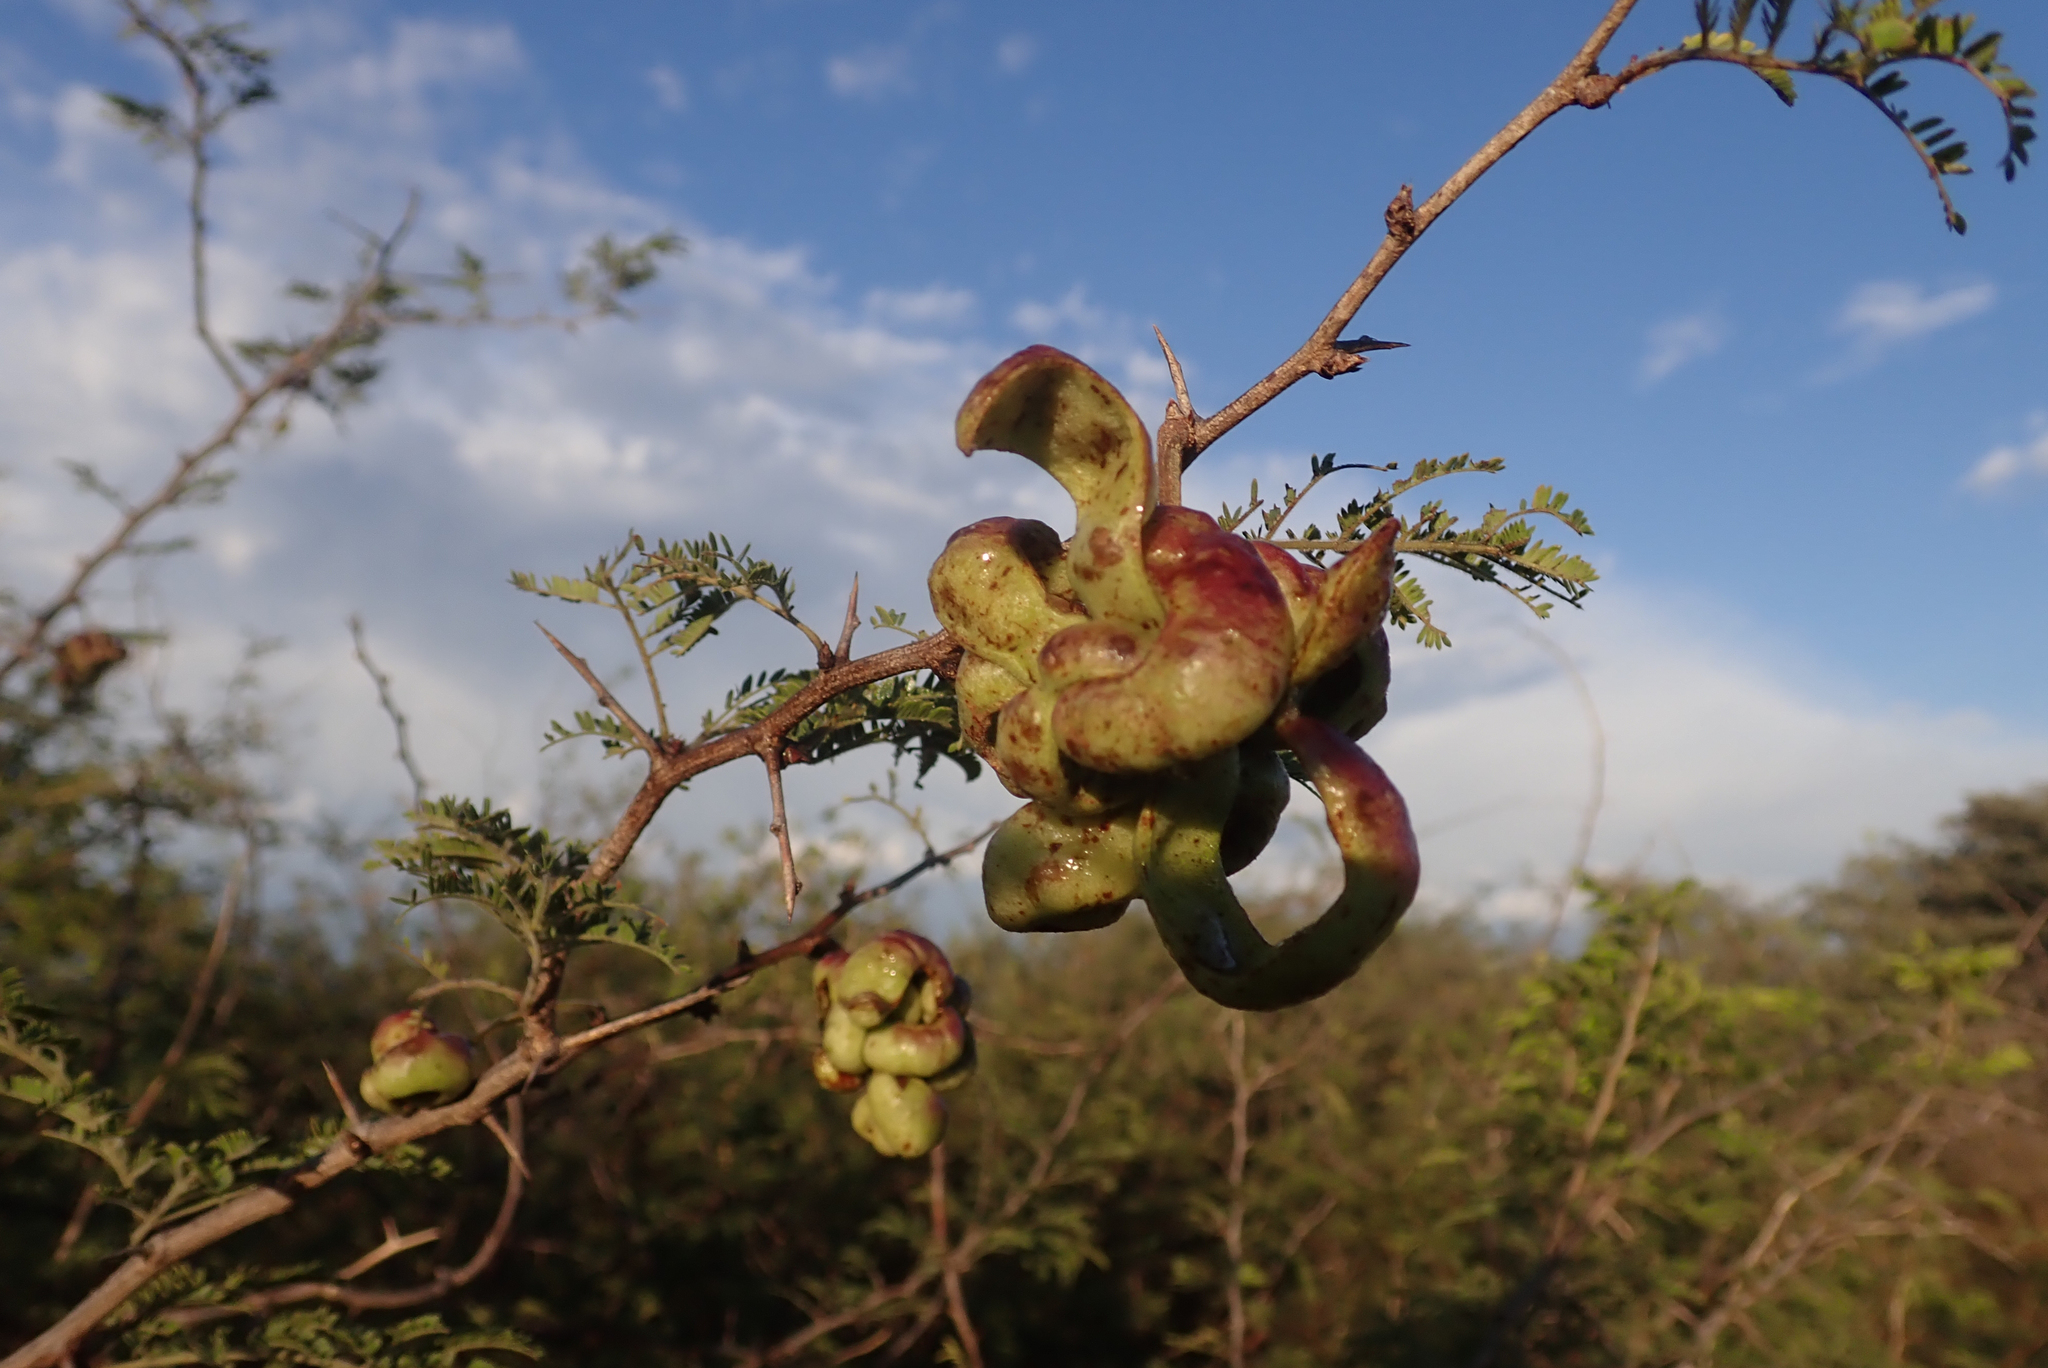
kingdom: Plantae
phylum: Tracheophyta
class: Magnoliopsida
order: Fabales
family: Fabaceae
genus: Dichrostachys
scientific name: Dichrostachys cinerea
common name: Sicklebush
